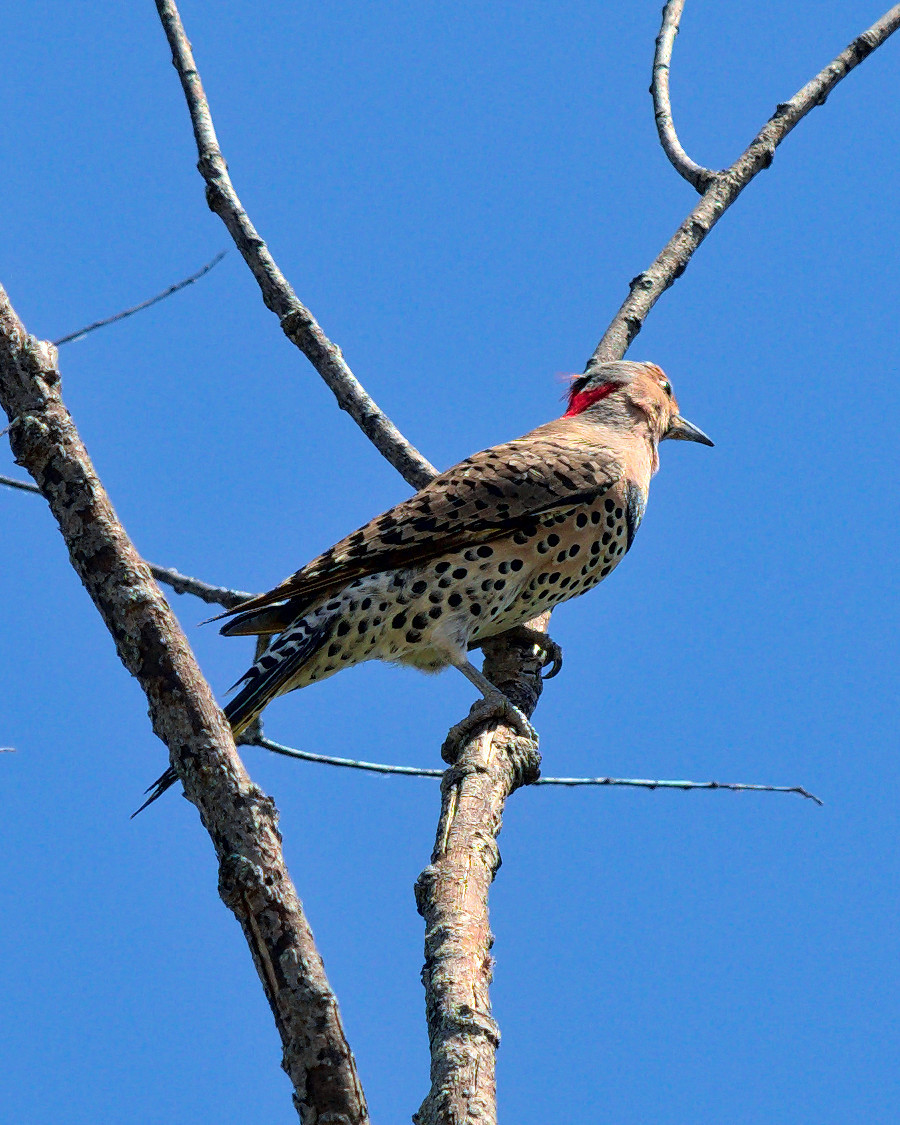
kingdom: Animalia
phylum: Chordata
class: Aves
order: Piciformes
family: Picidae
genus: Colaptes
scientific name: Colaptes auratus
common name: Northern flicker
